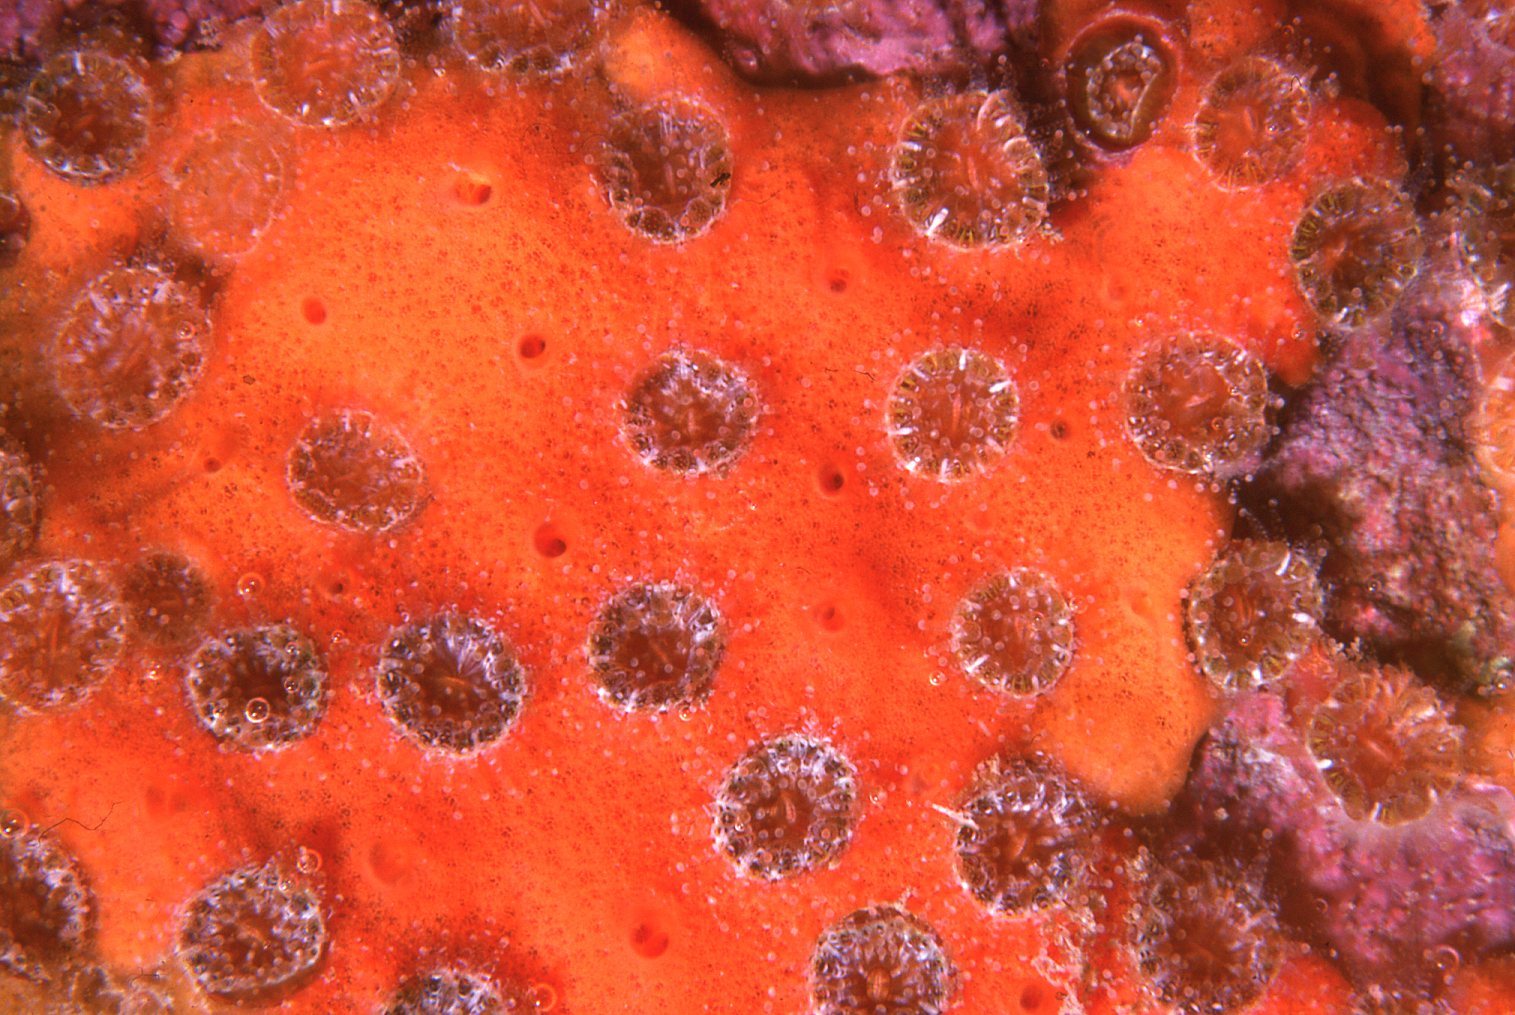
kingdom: Animalia
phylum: Cnidaria
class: Anthozoa
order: Scleractinia
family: Rhizangiidae
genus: Culicia
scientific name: Culicia tenella
